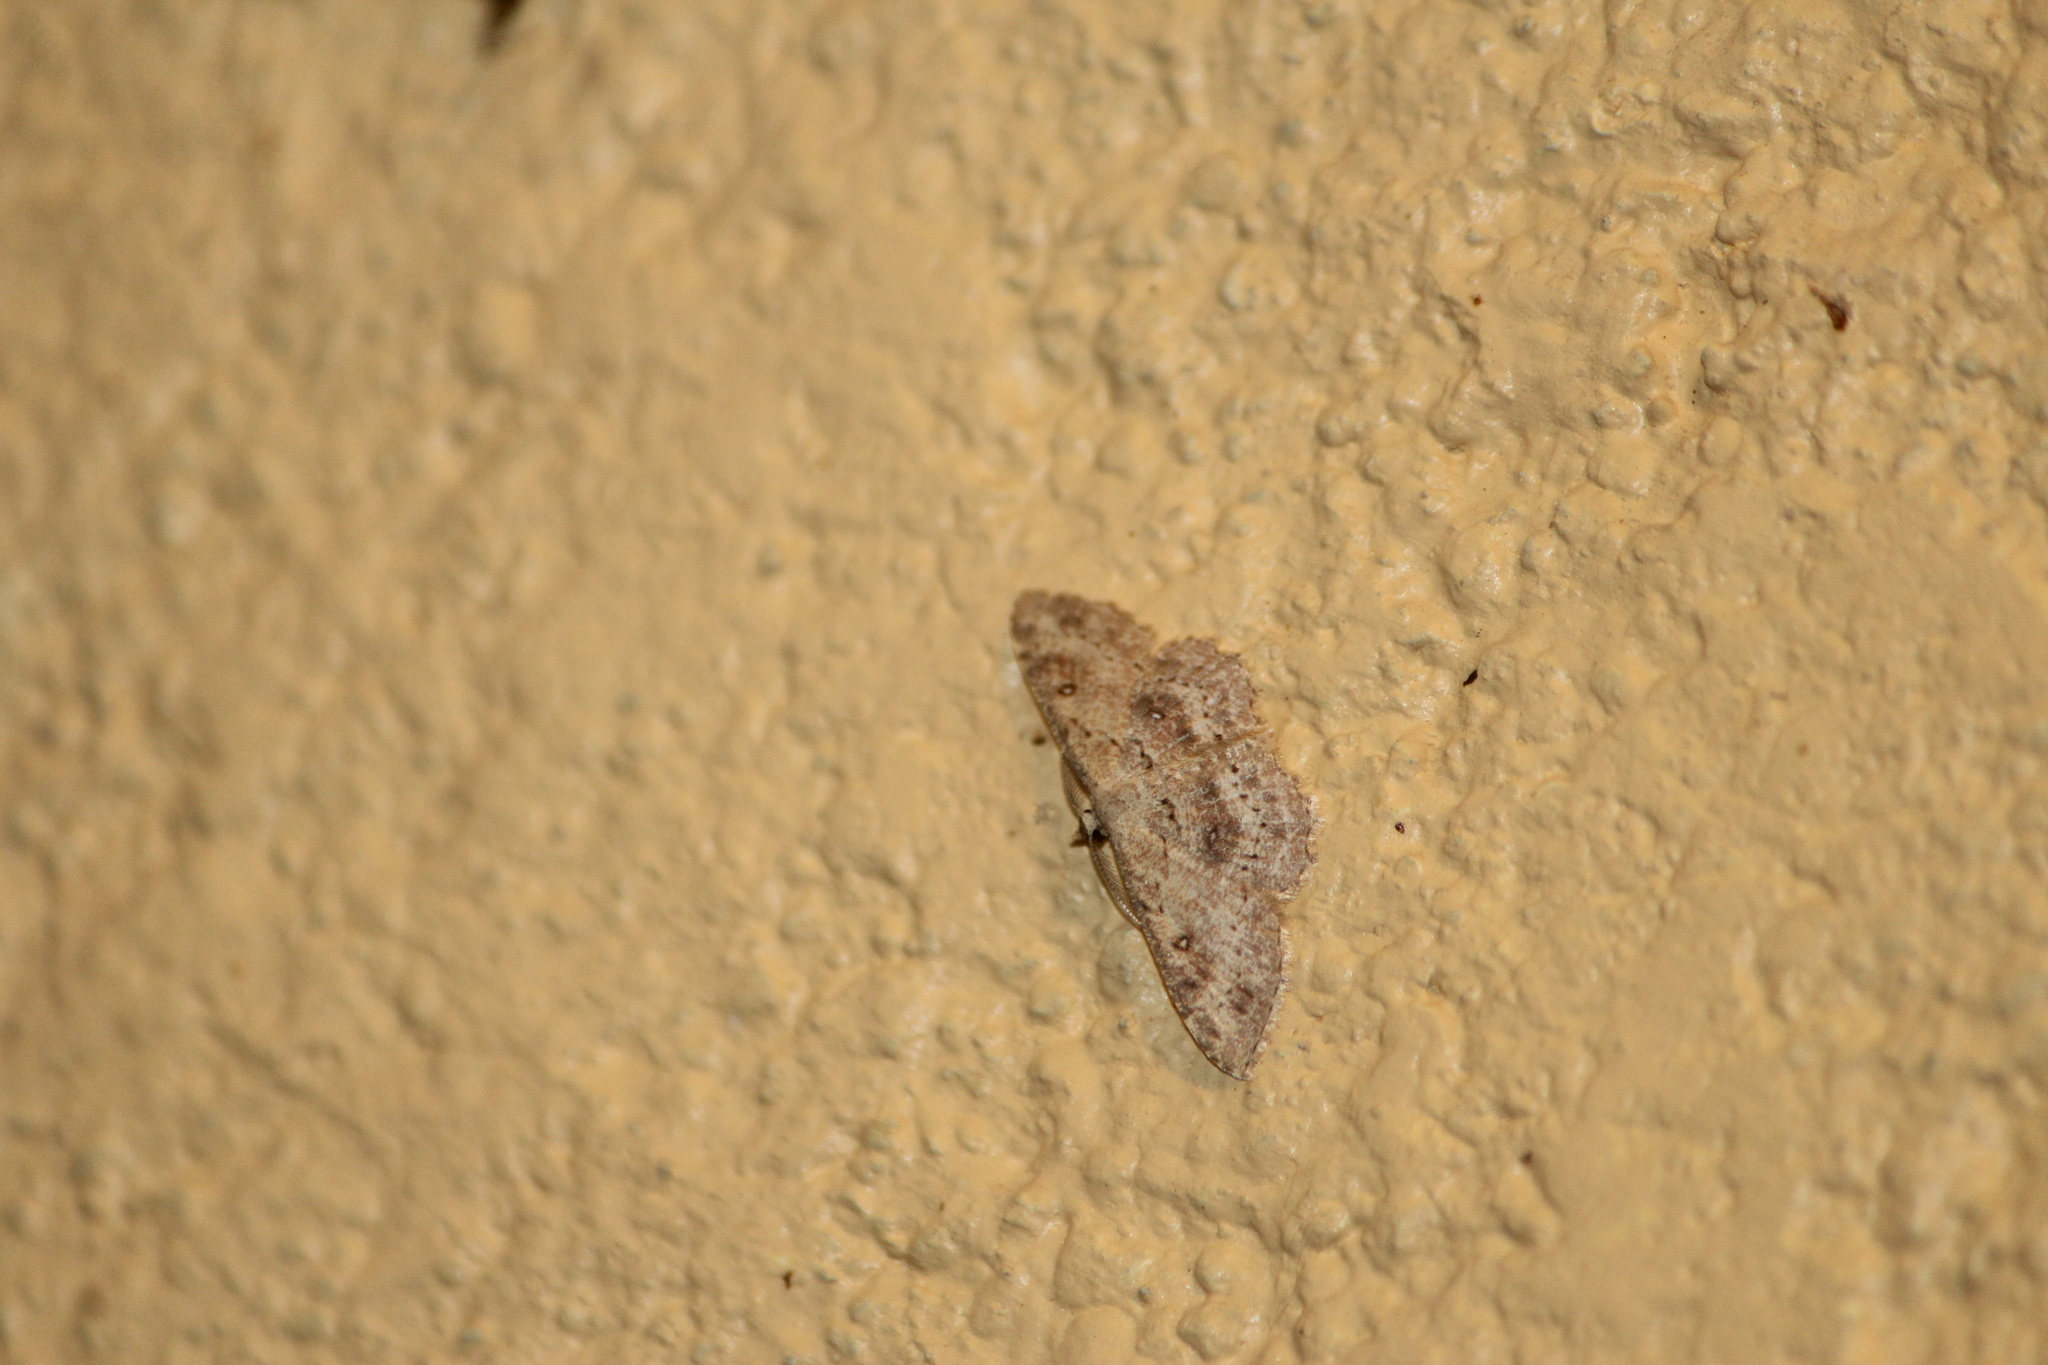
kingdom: Animalia
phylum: Arthropoda
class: Insecta
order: Lepidoptera
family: Geometridae
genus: Cyclophora
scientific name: Cyclophora nanaria
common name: Cankerworm
